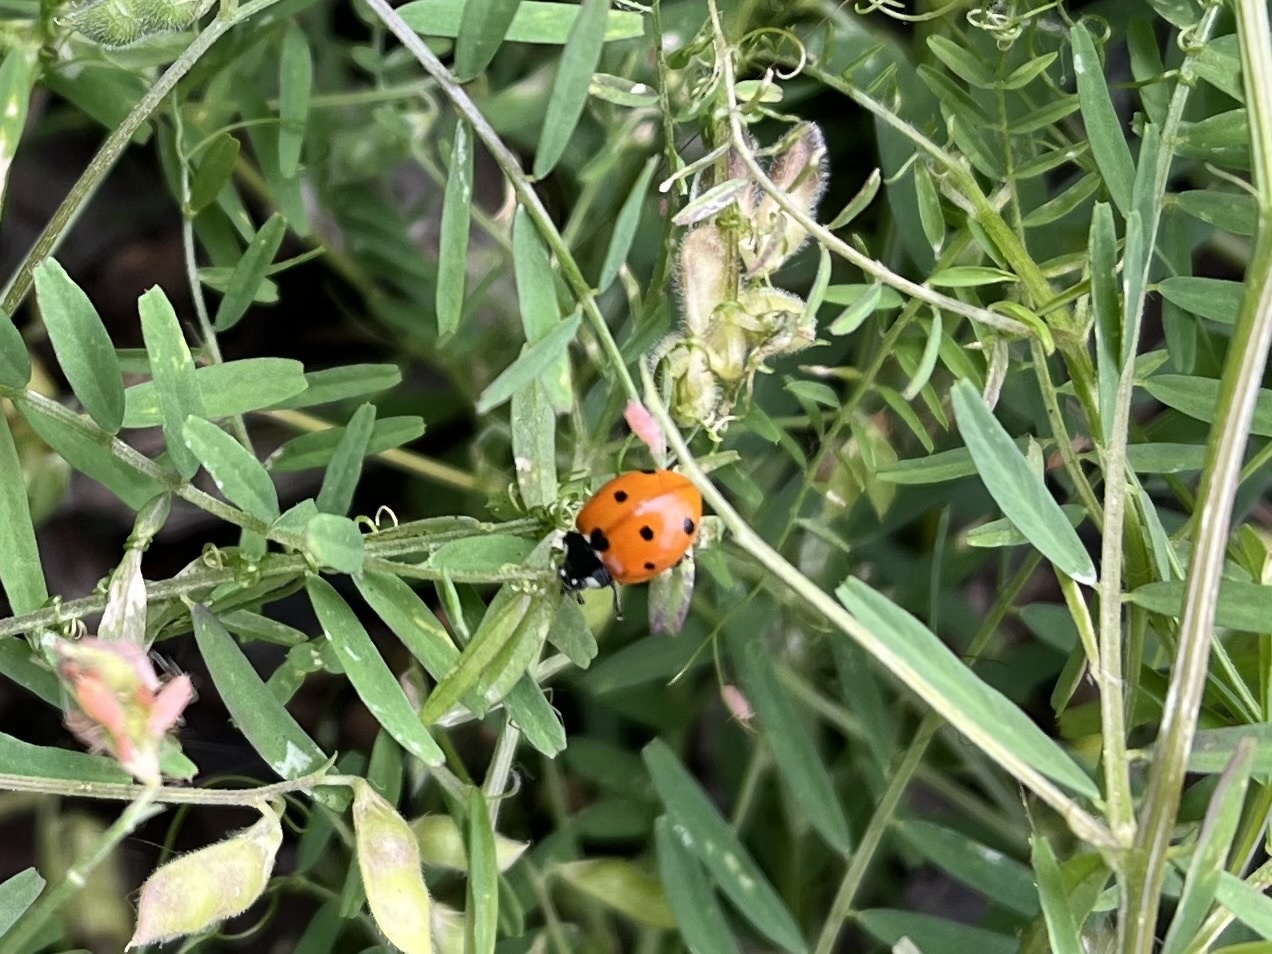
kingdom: Animalia
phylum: Arthropoda
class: Insecta
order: Coleoptera
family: Coccinellidae
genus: Coccinella
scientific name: Coccinella septempunctata
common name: Sevenspotted lady beetle
